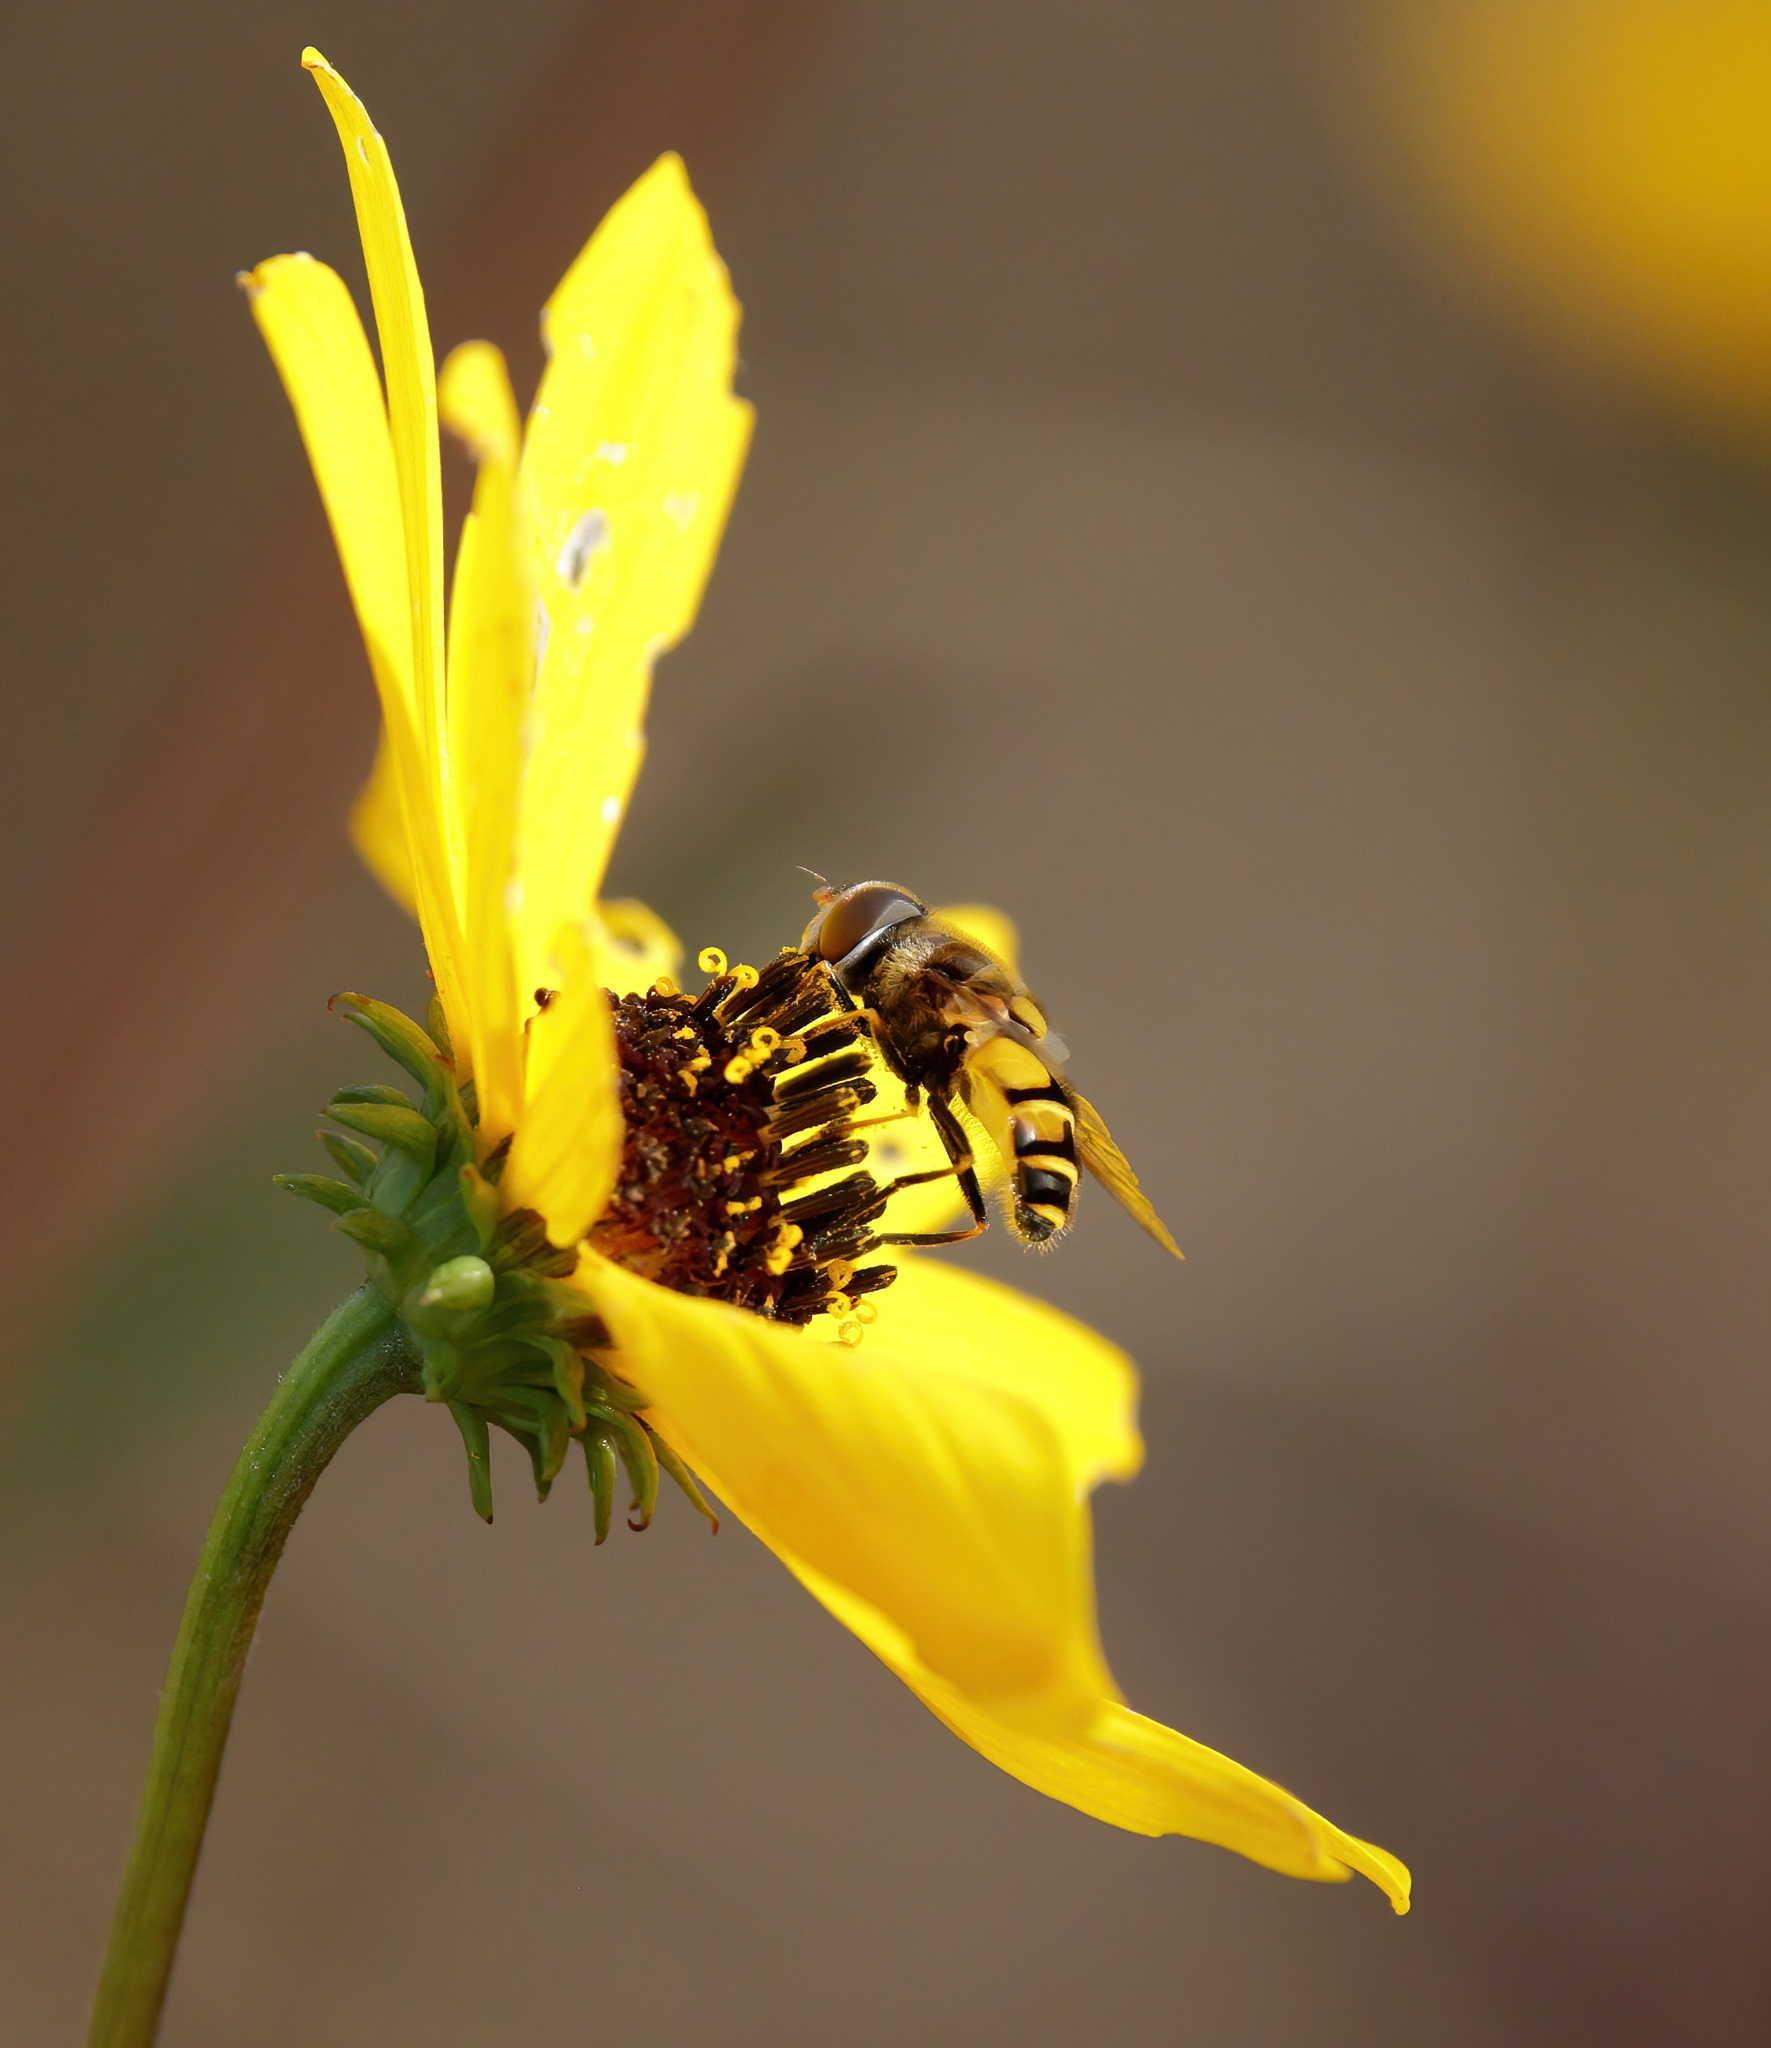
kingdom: Animalia
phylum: Arthropoda
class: Insecta
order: Diptera
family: Syrphidae
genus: Eristalis
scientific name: Eristalis transversa
